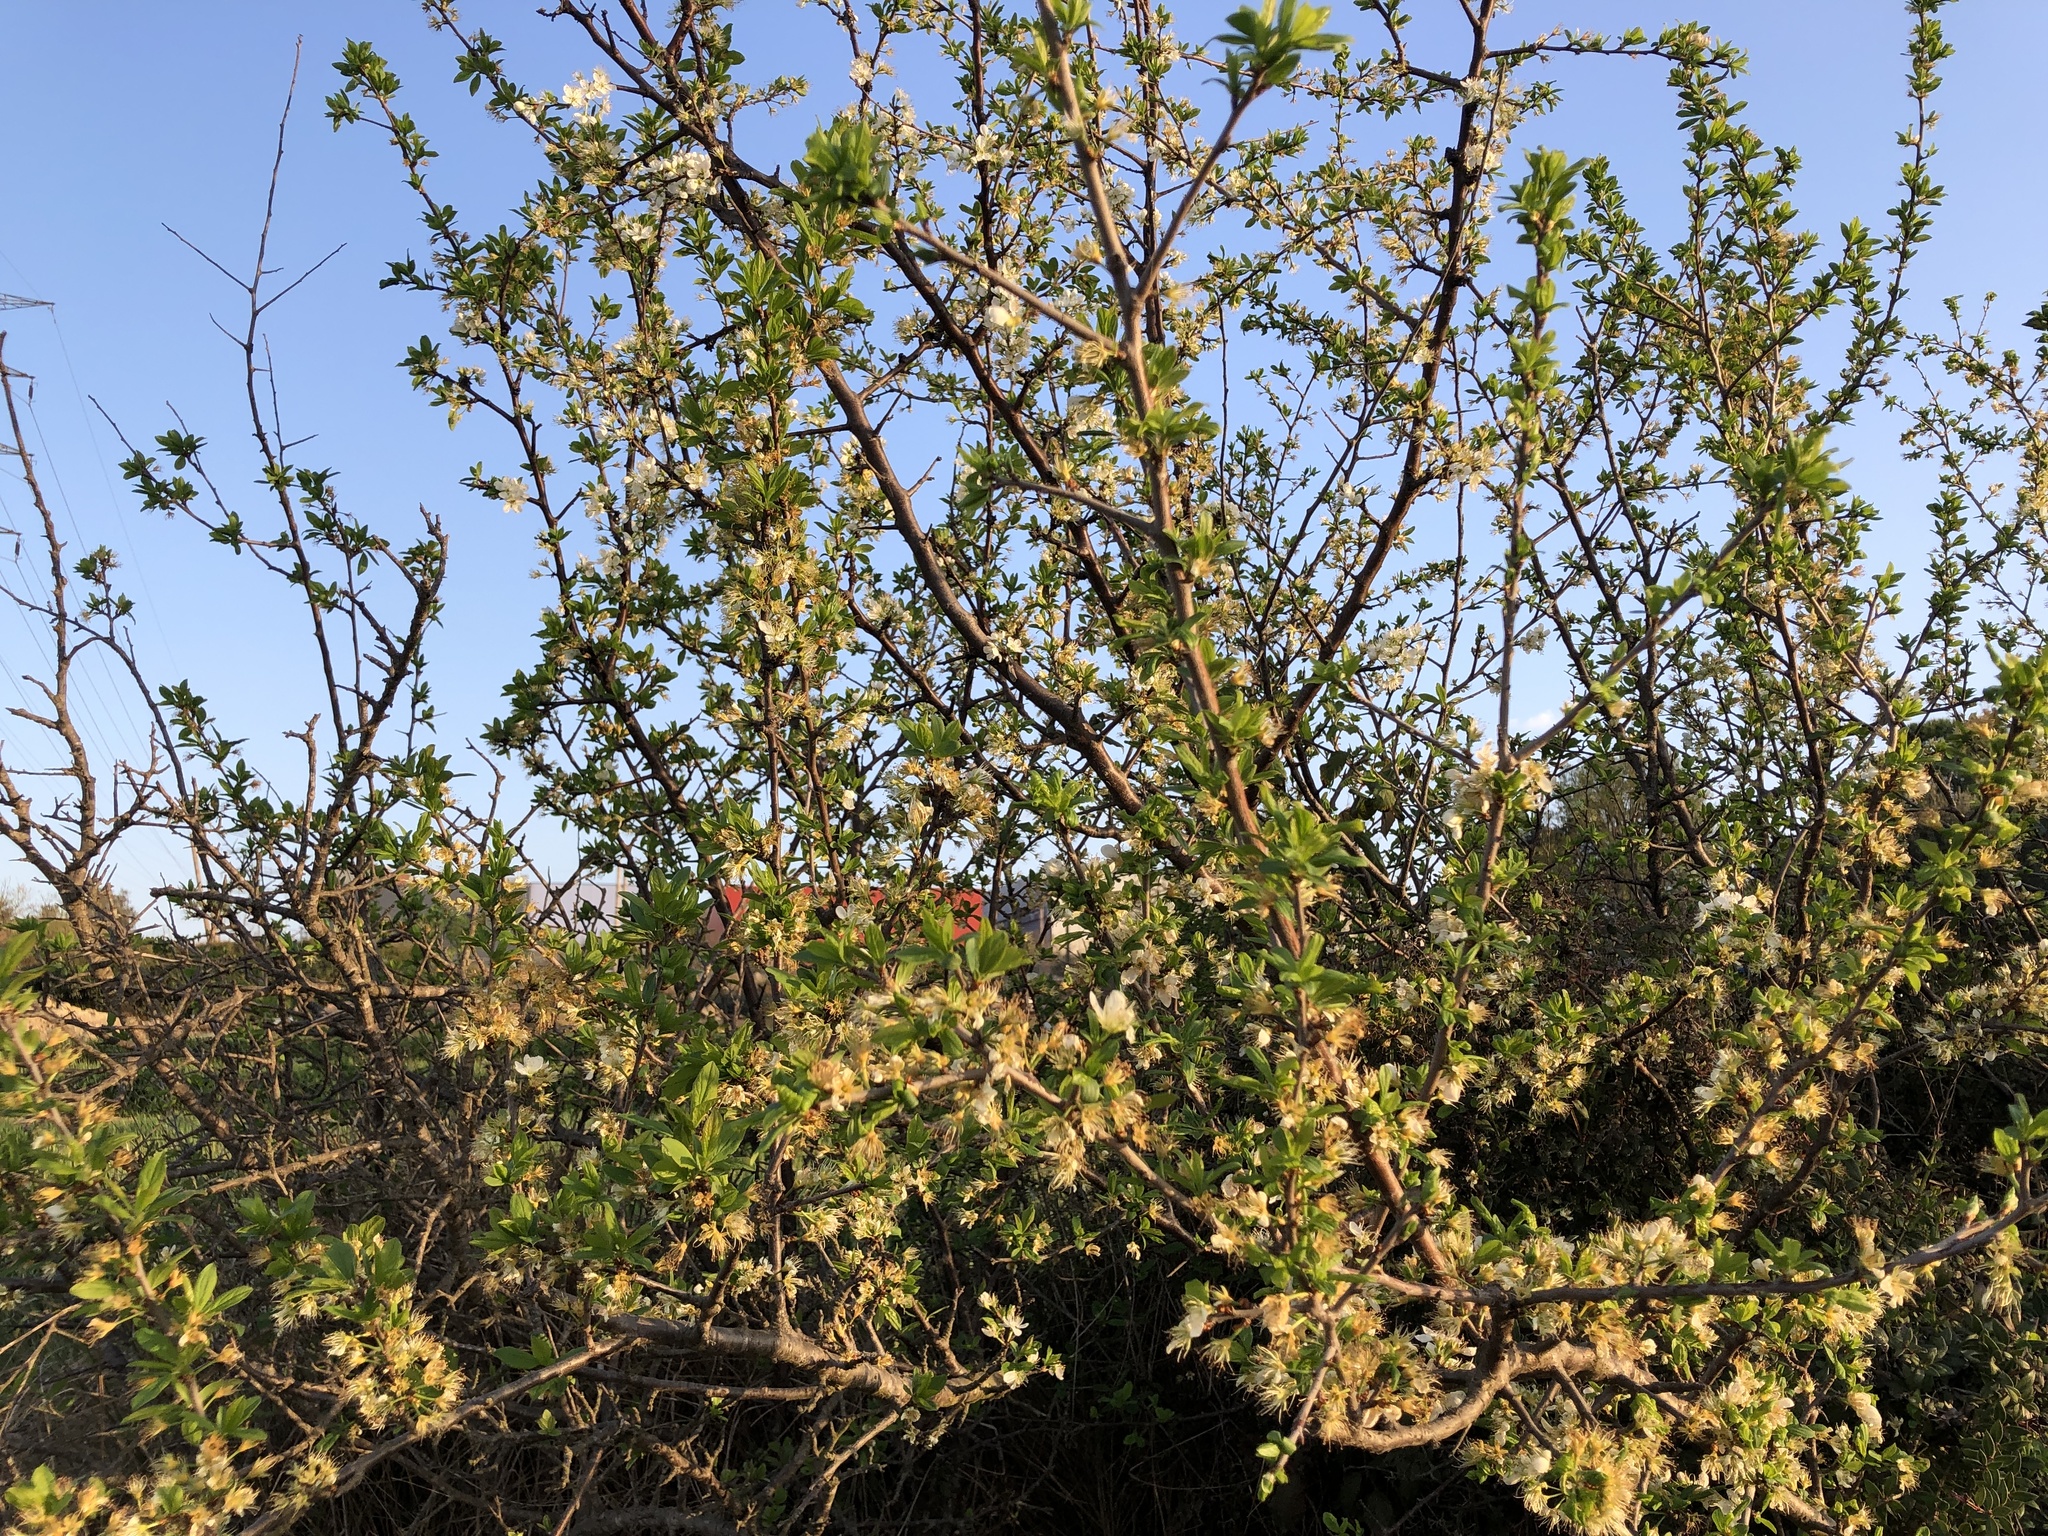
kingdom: Plantae
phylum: Tracheophyta
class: Magnoliopsida
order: Rosales
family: Rosaceae
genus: Prunus
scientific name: Prunus spinosa
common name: Blackthorn
